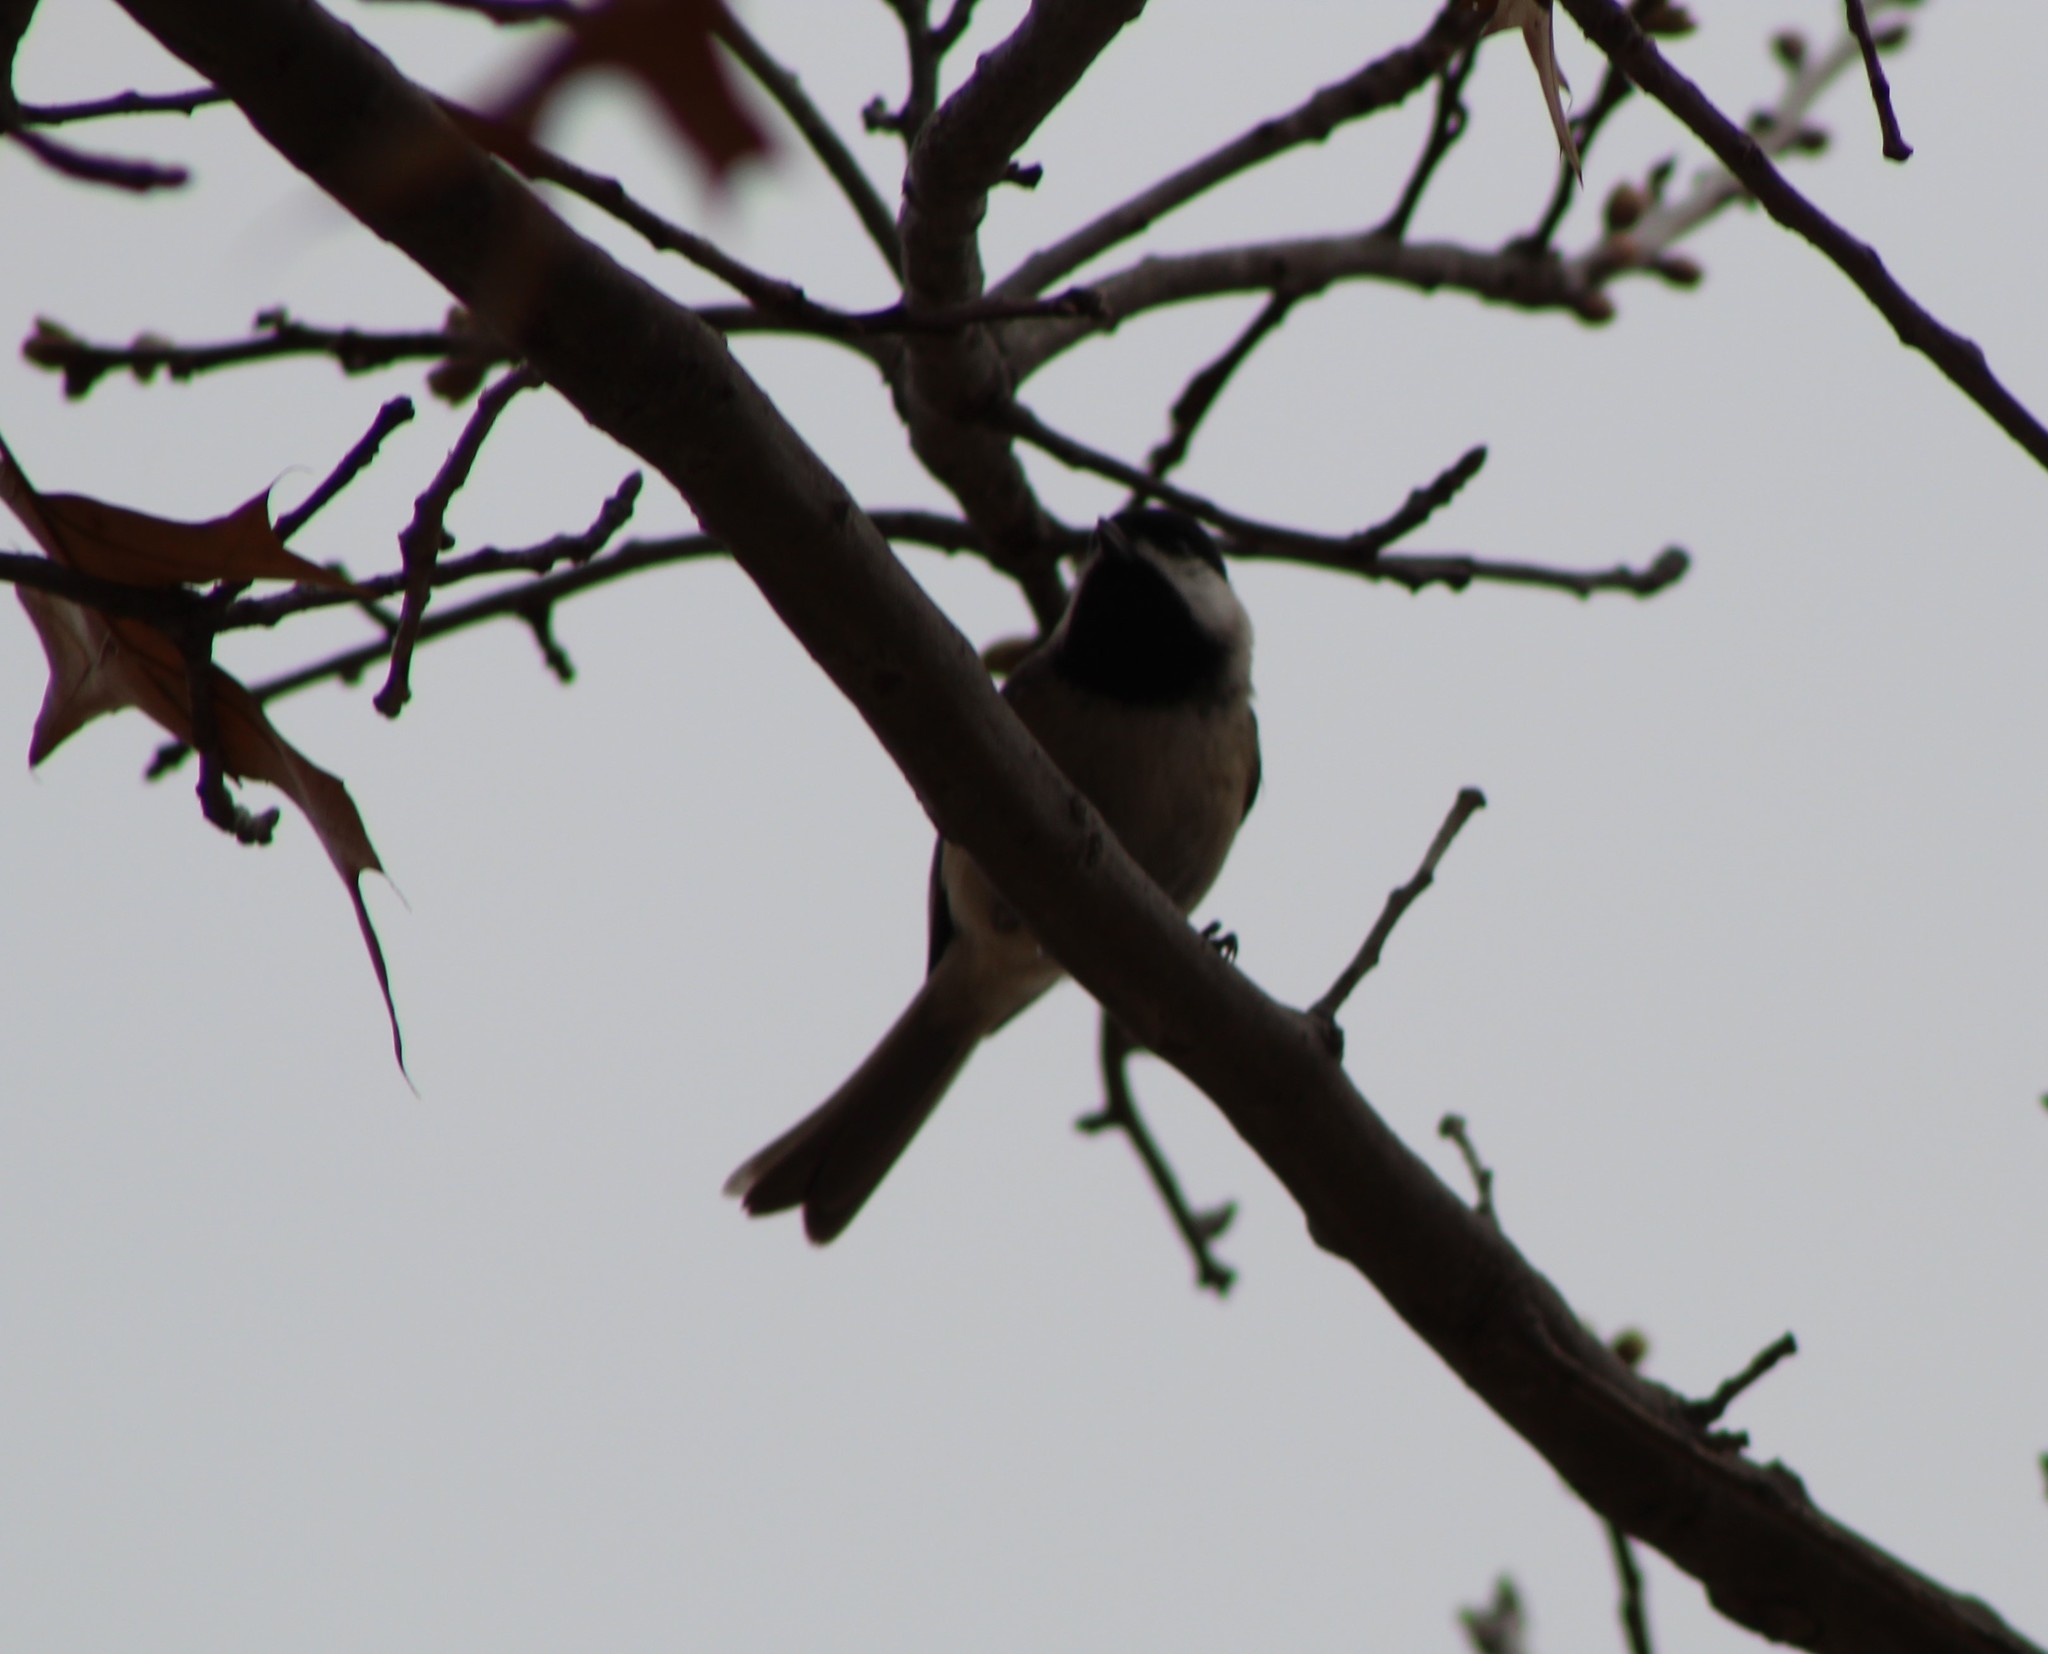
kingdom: Animalia
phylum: Chordata
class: Aves
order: Passeriformes
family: Paridae
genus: Poecile
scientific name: Poecile carolinensis
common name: Carolina chickadee
